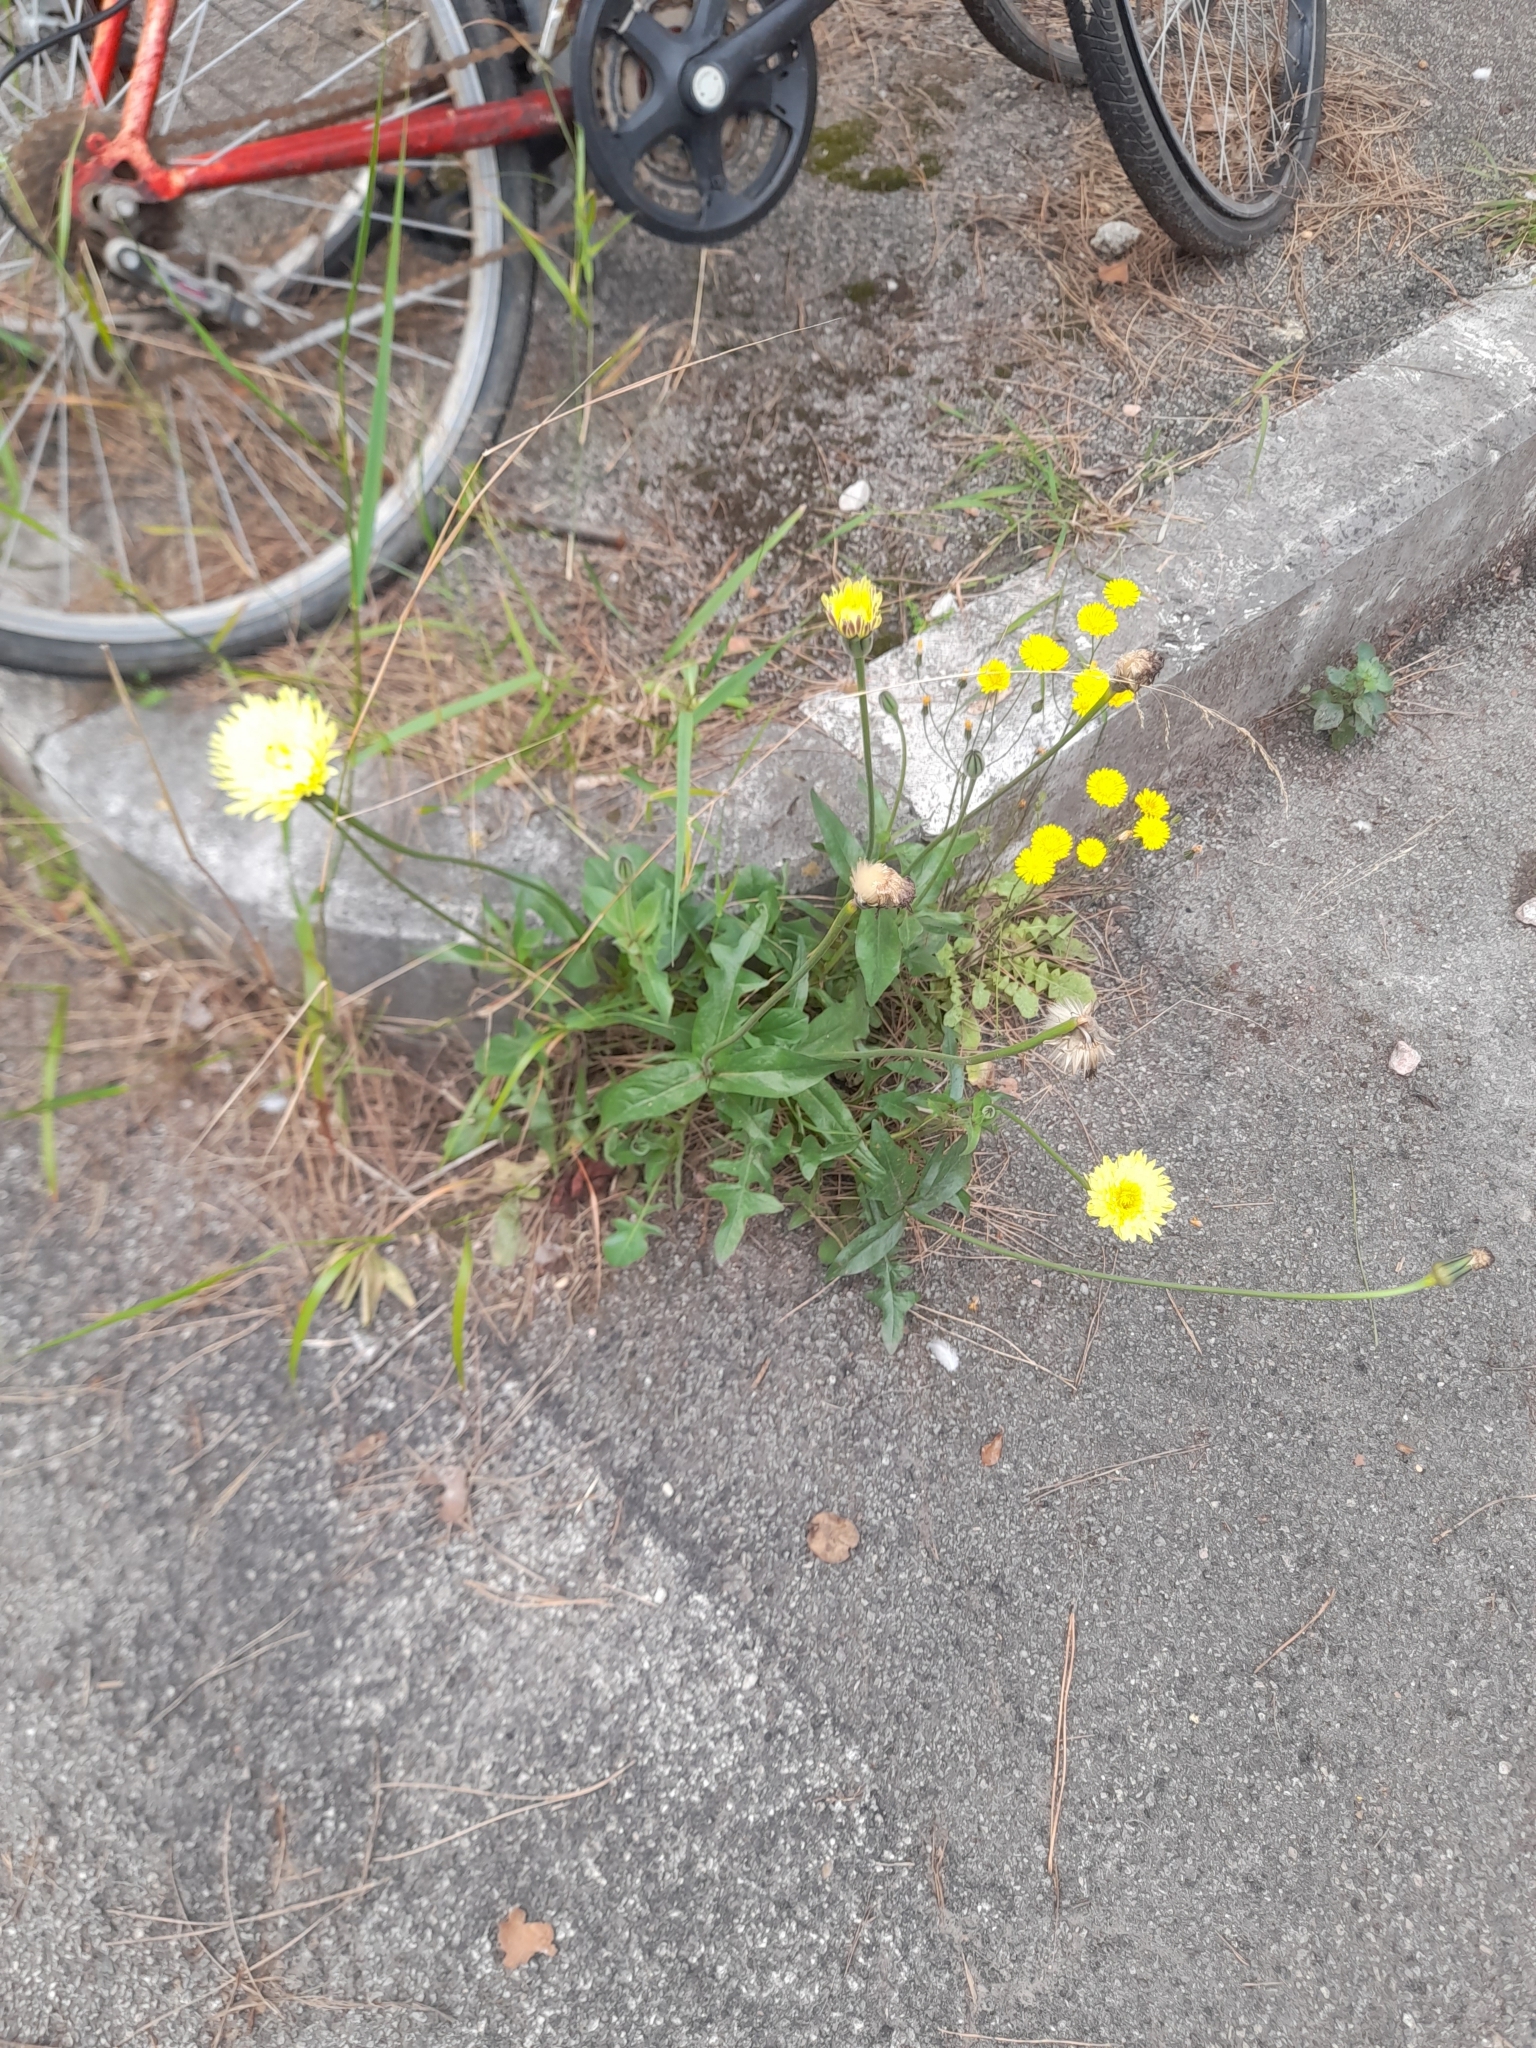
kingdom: Plantae
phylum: Tracheophyta
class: Magnoliopsida
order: Asterales
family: Asteraceae
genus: Urospermum
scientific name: Urospermum dalechampii
